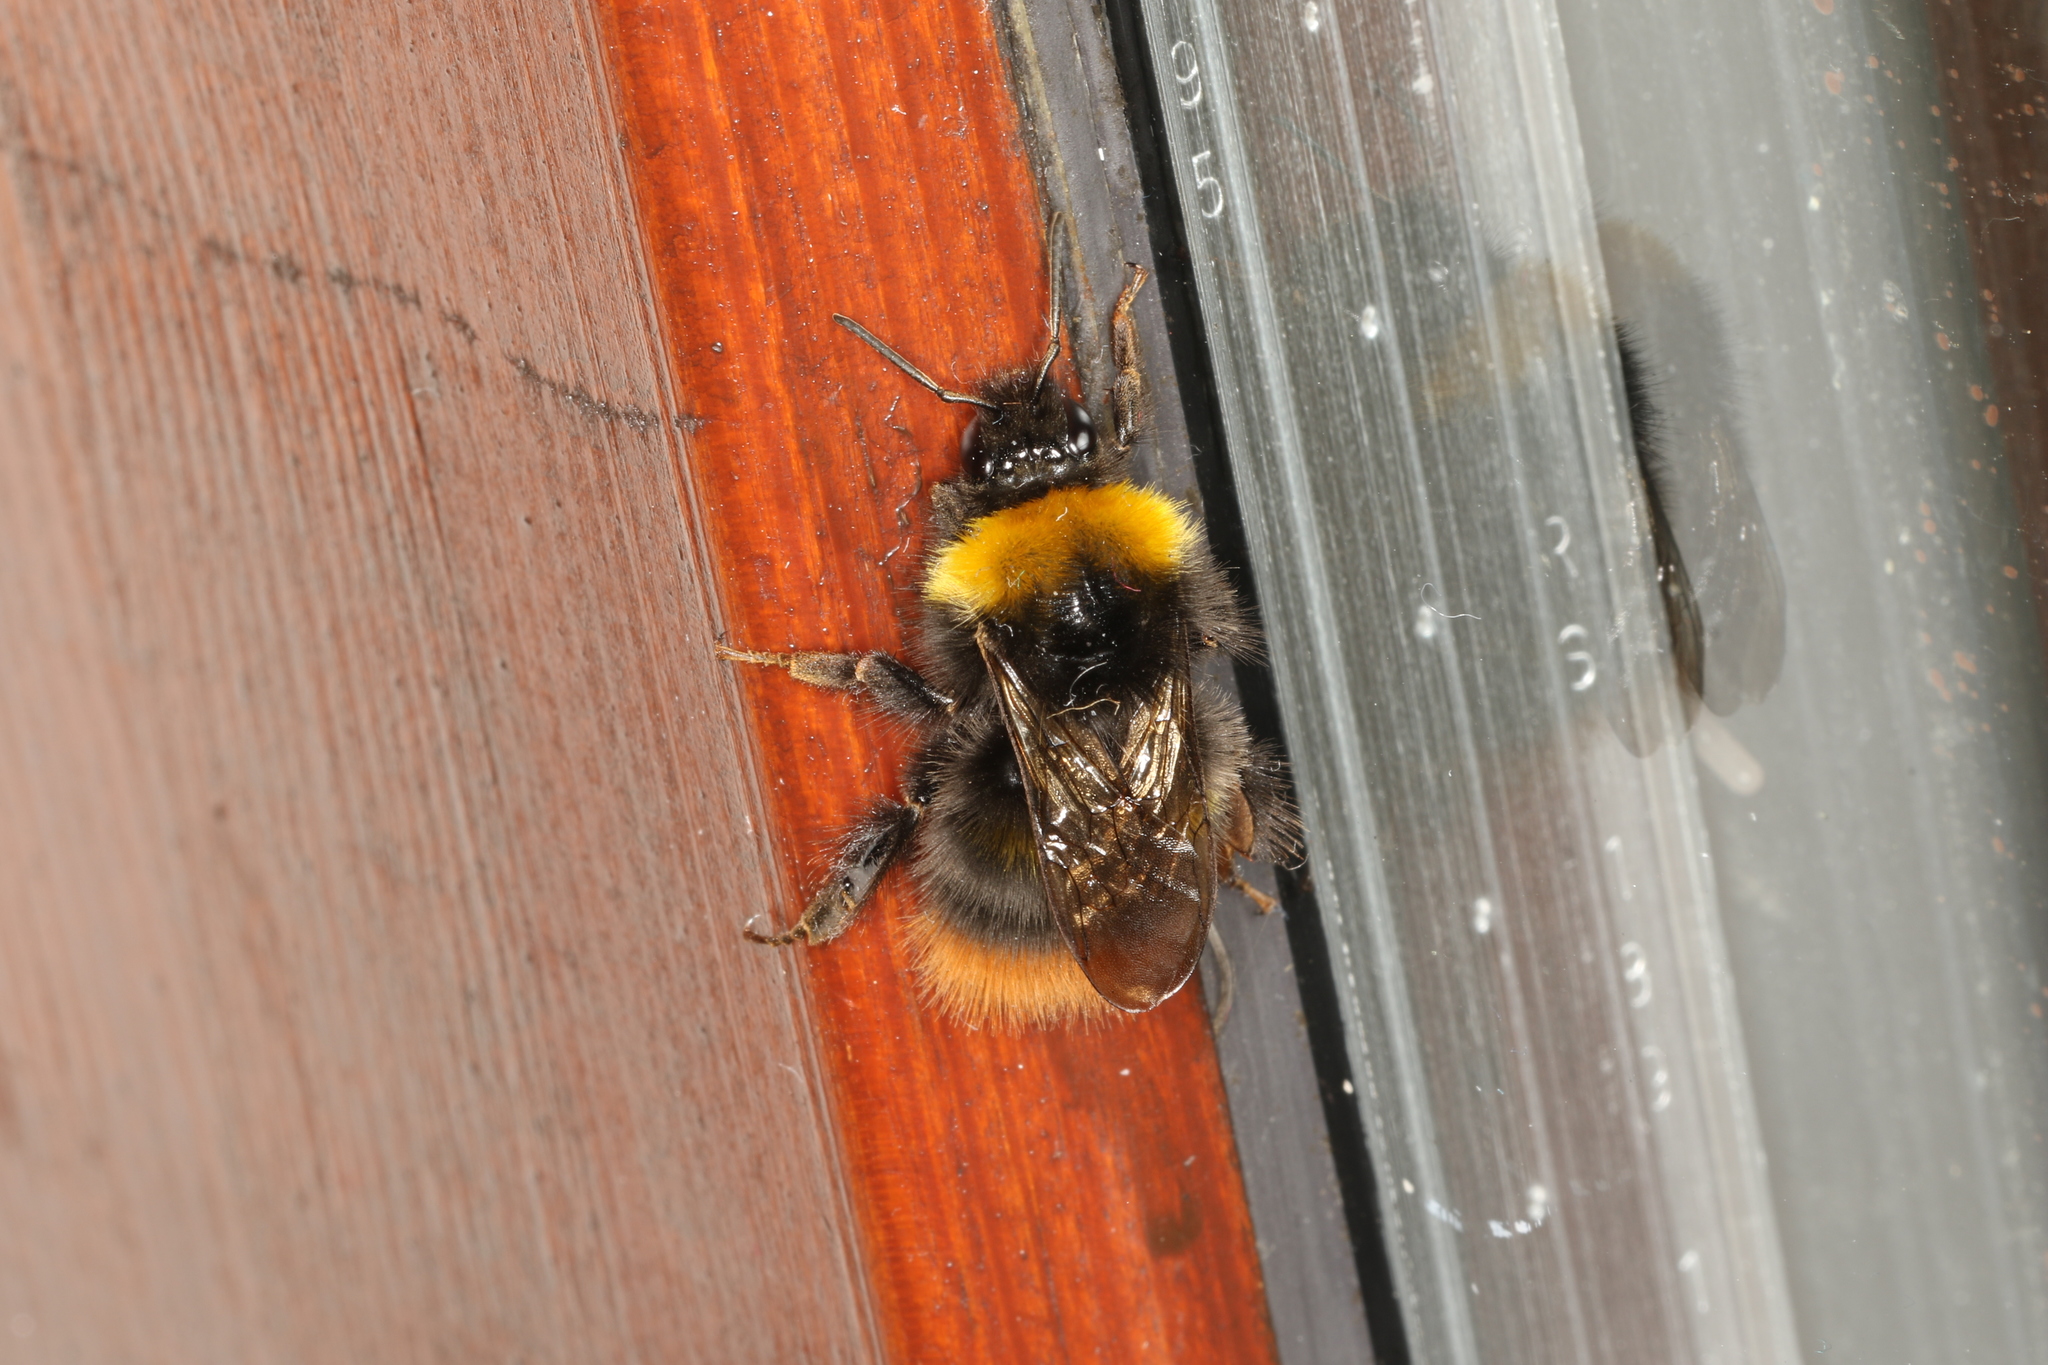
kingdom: Animalia
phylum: Arthropoda
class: Insecta
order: Hymenoptera
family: Apidae
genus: Bombus
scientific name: Bombus pratorum
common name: Early humble-bee
